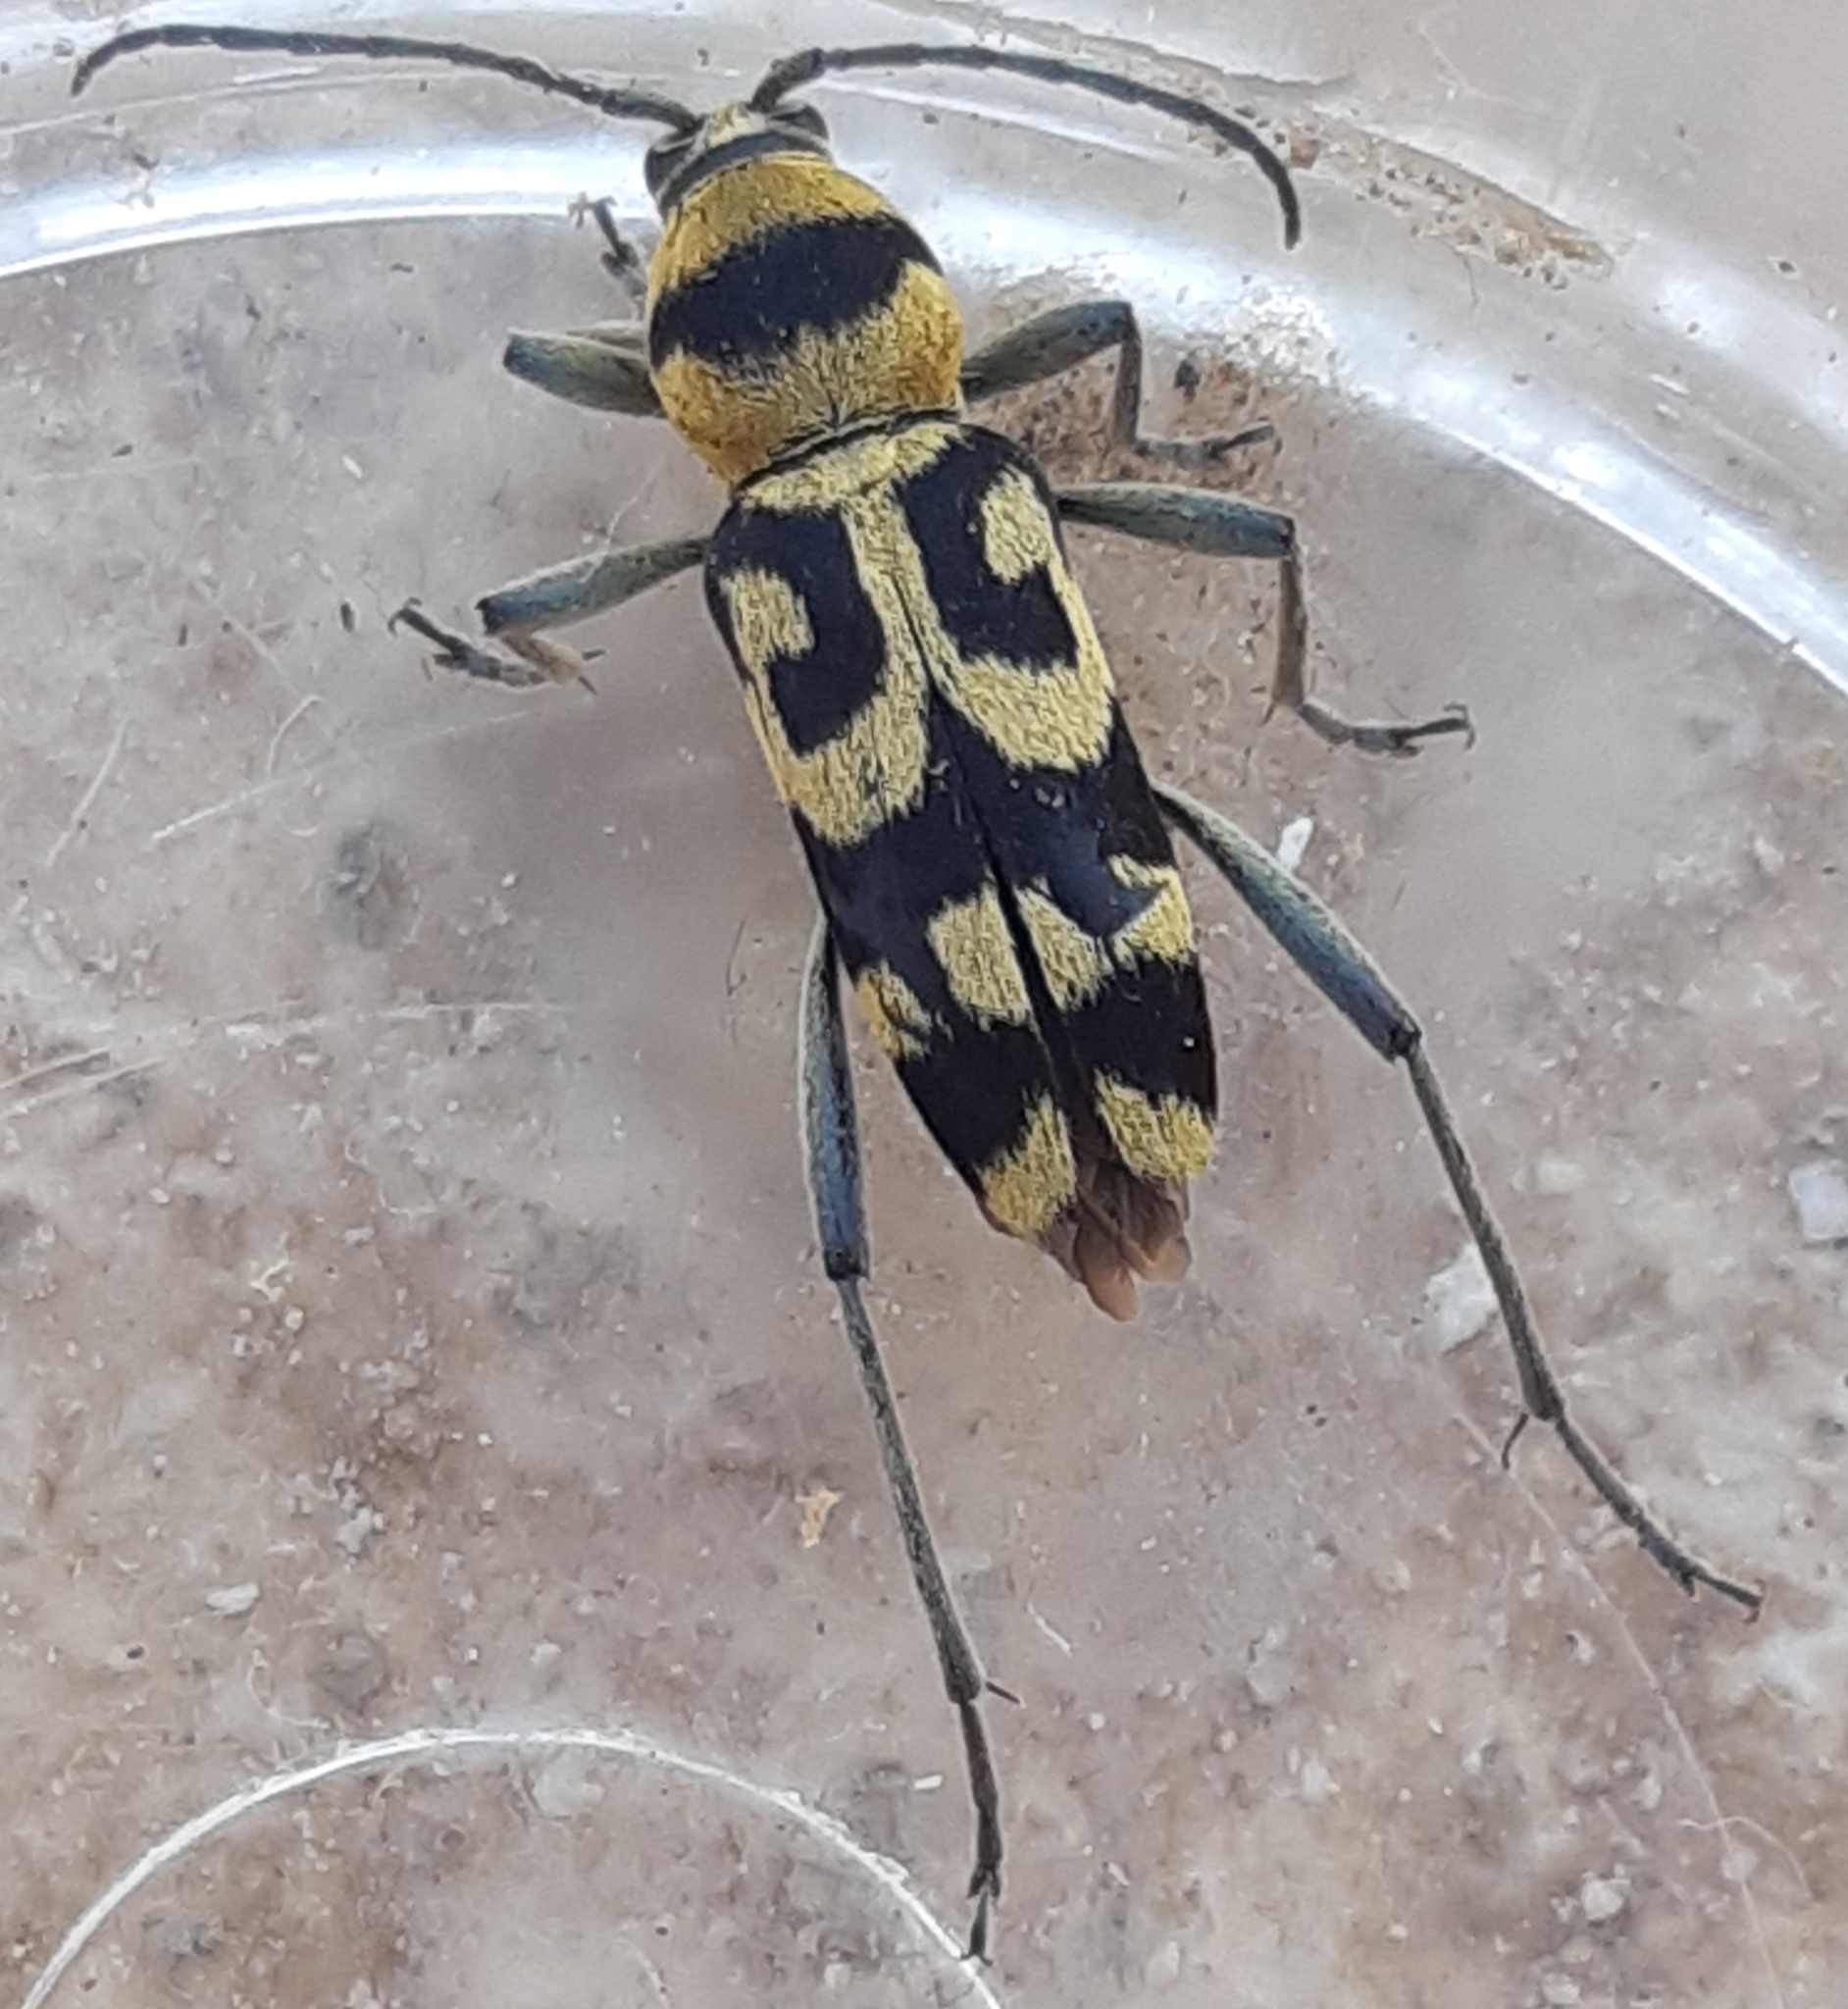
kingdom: Animalia
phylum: Arthropoda
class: Insecta
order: Coleoptera
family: Cerambycidae
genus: Chlorophorus
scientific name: Chlorophorus varius
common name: Grape wood borer
